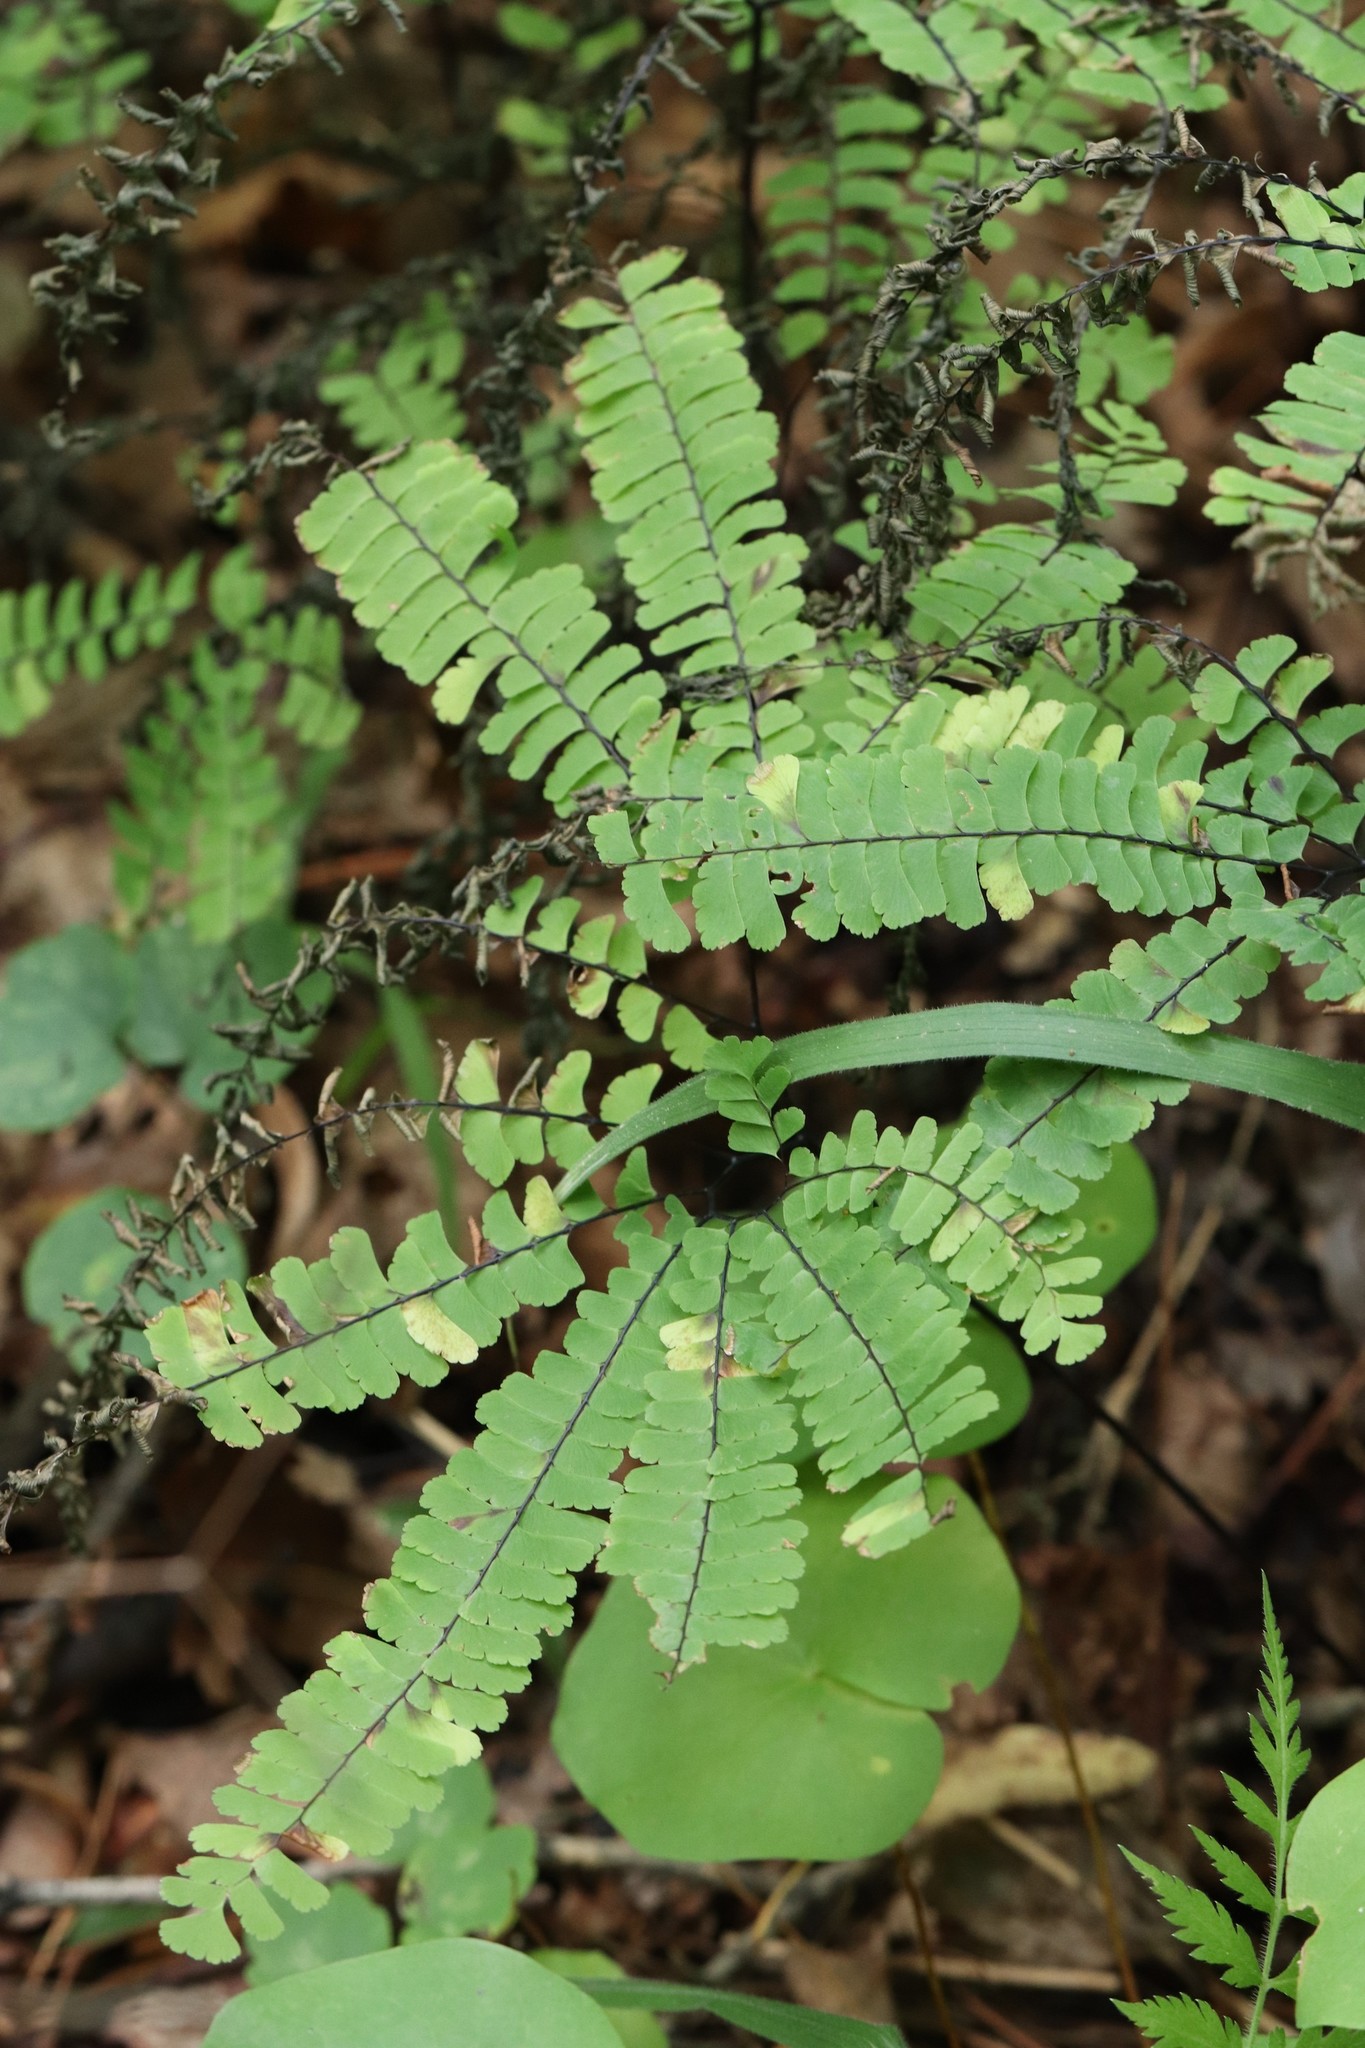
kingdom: Plantae
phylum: Tracheophyta
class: Polypodiopsida
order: Polypodiales
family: Pteridaceae
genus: Adiantum
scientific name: Adiantum pedatum
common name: Five-finger fern
